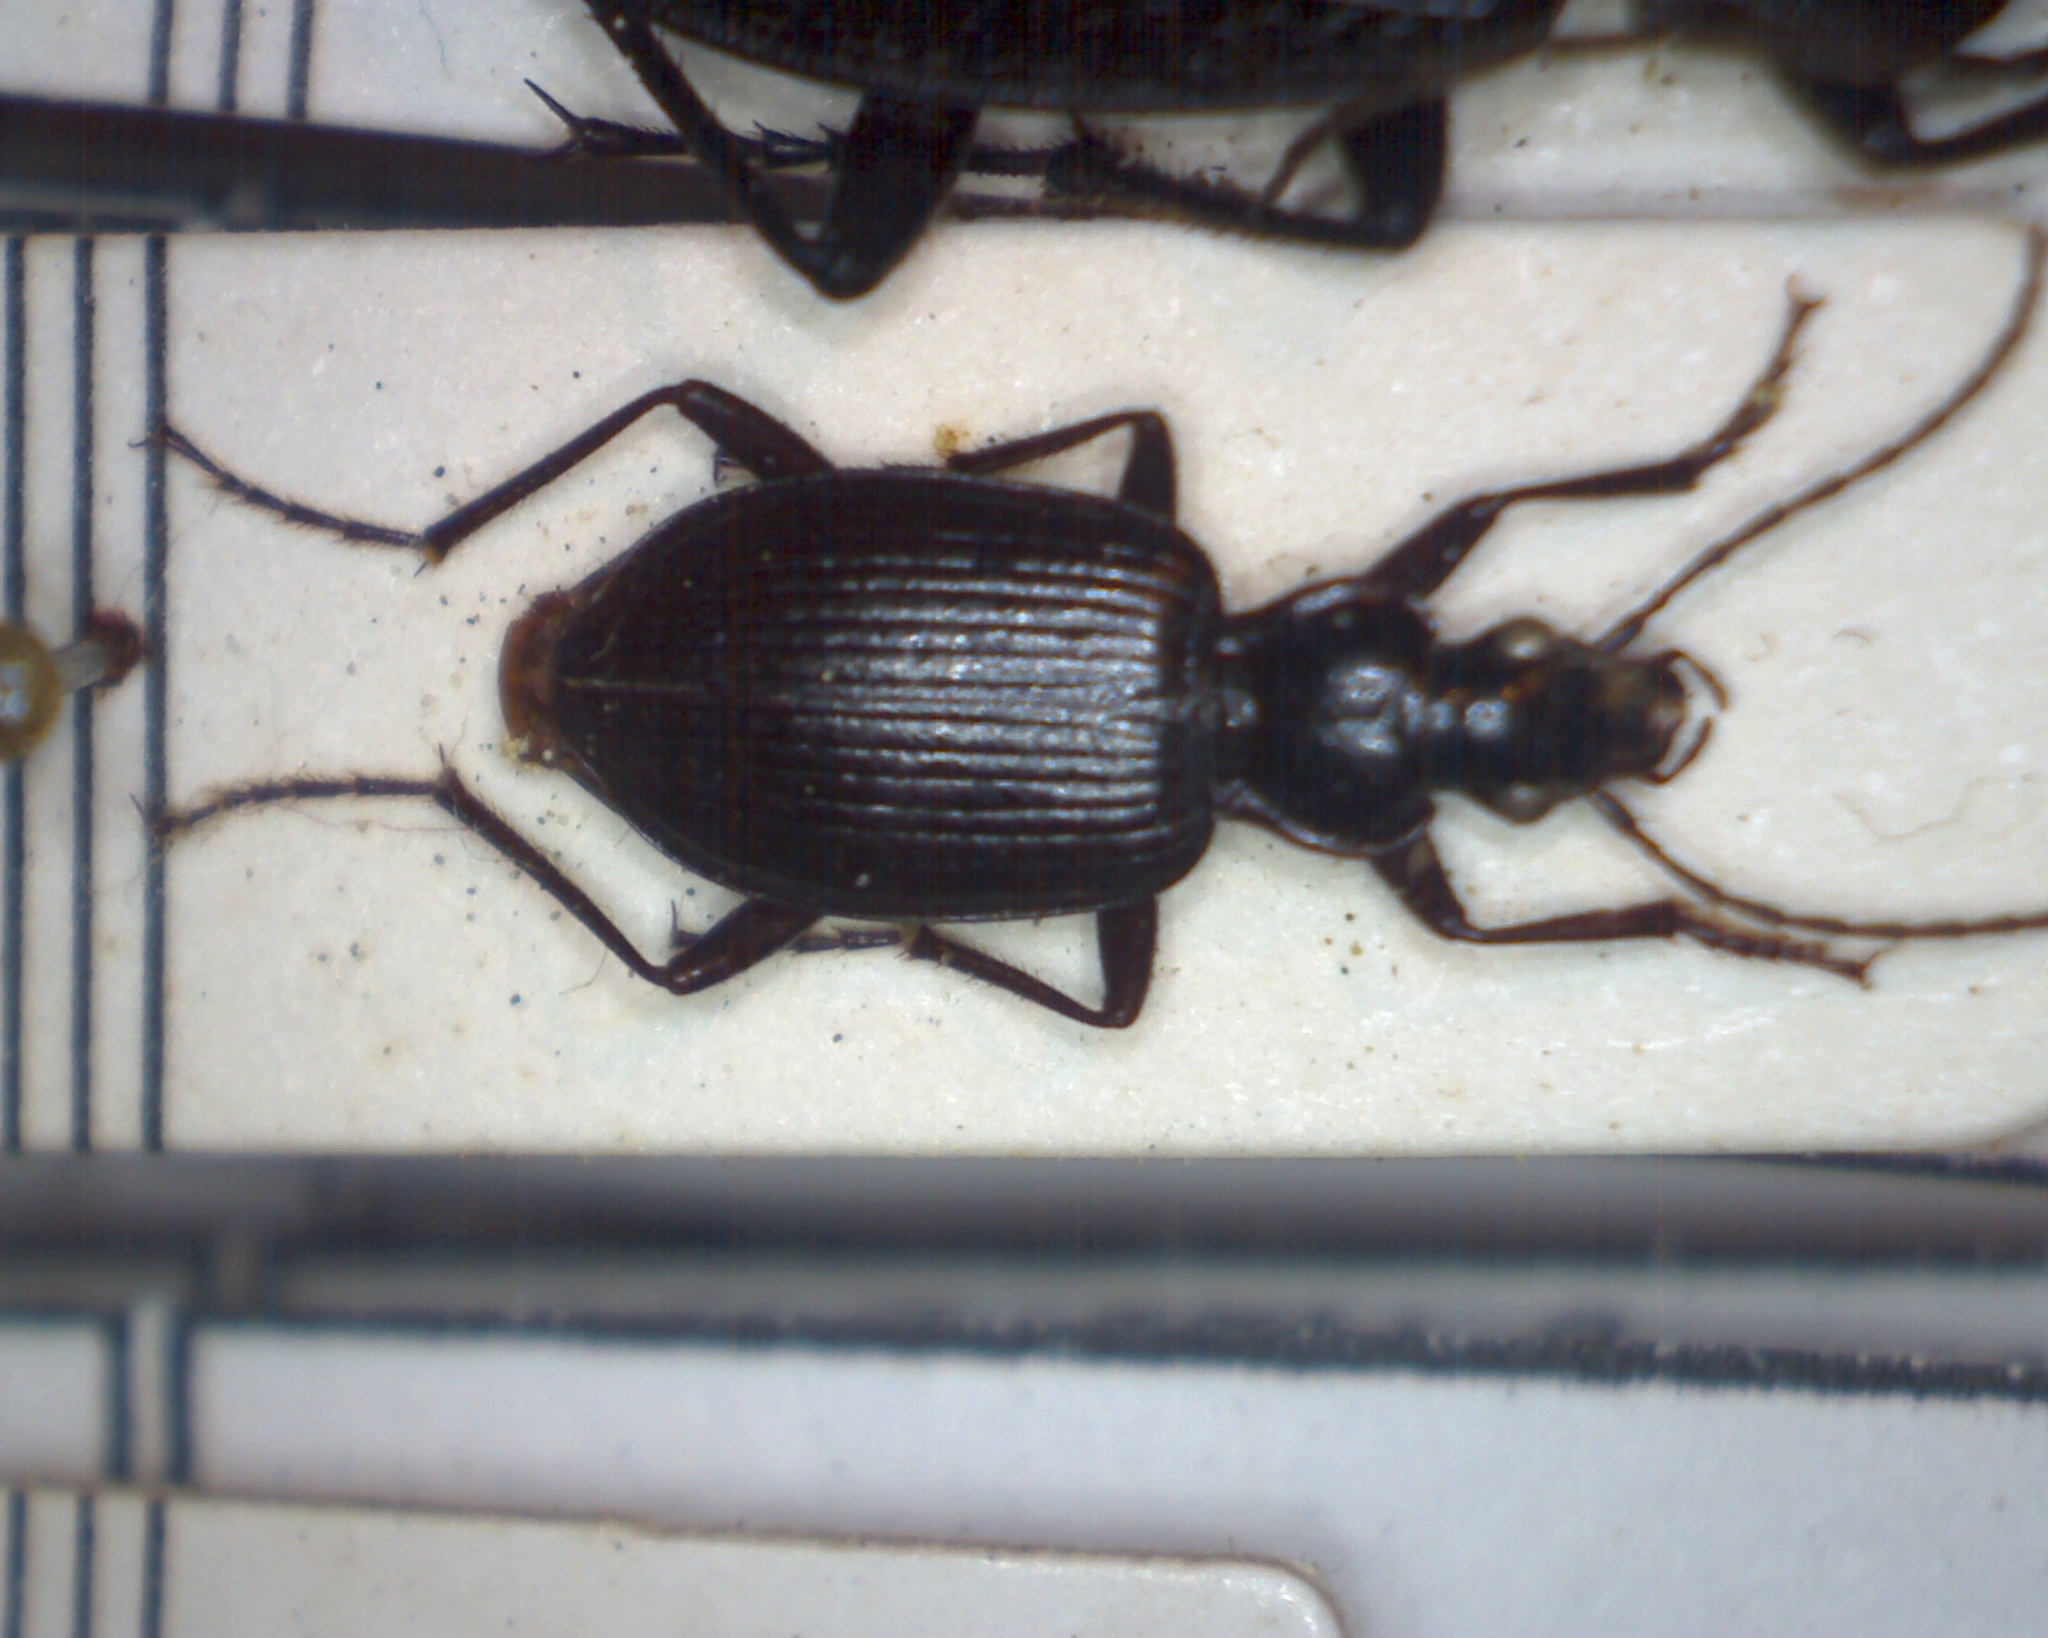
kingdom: Animalia
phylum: Arthropoda
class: Insecta
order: Coleoptera
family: Carabidae
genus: Platynus
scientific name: Platynus assimilis
